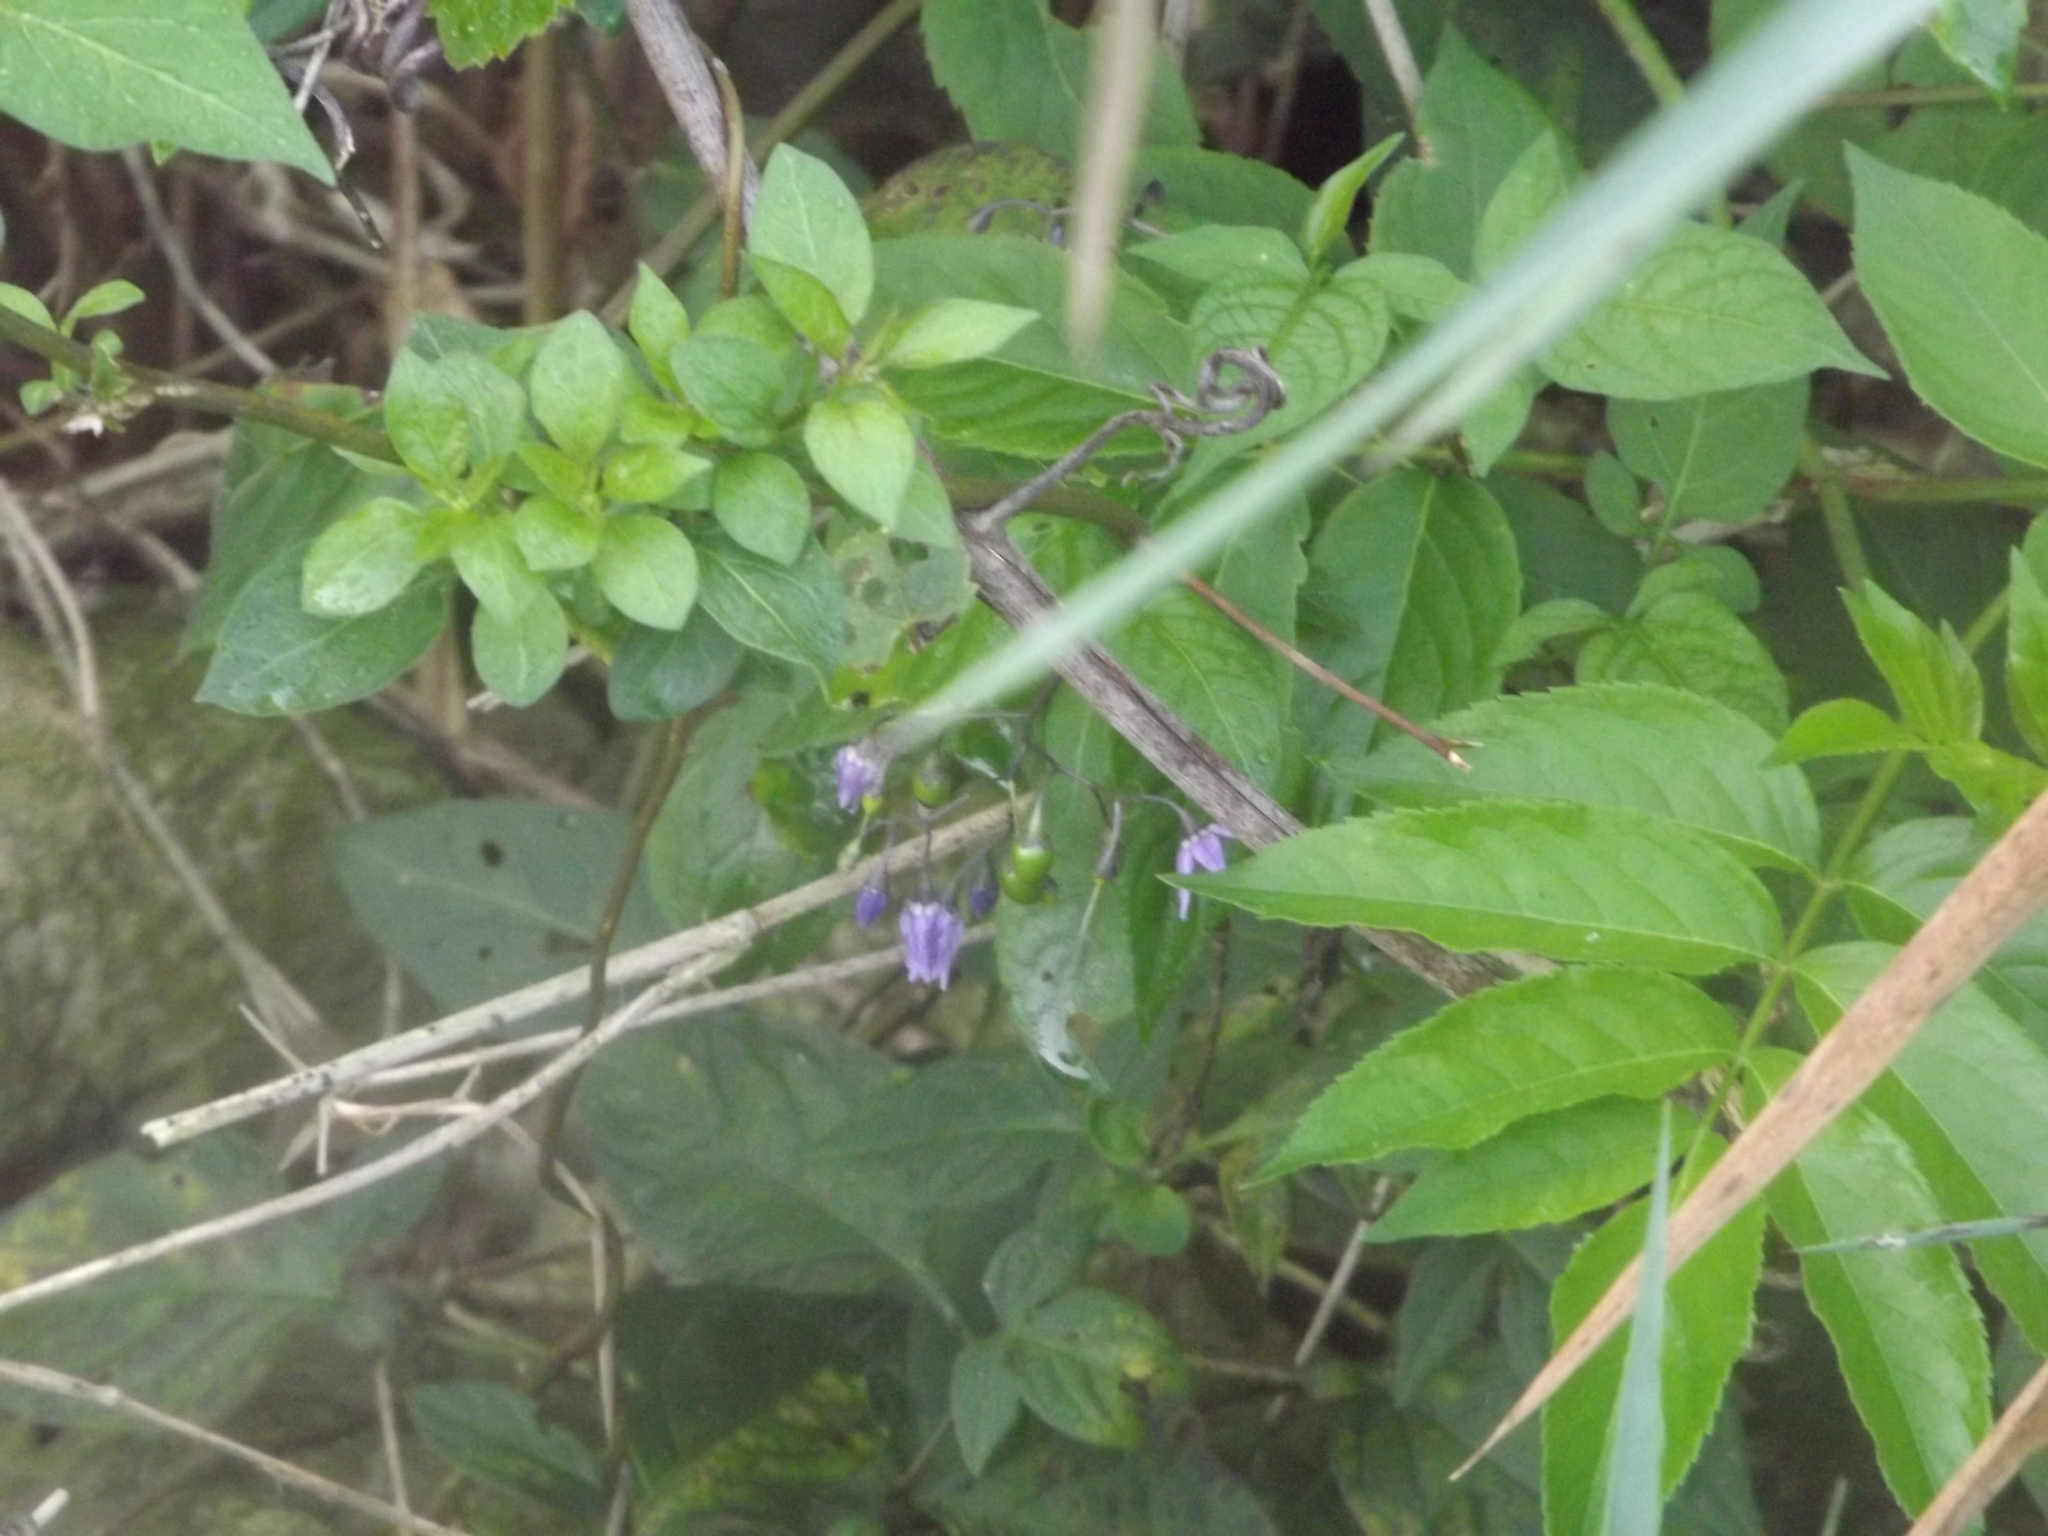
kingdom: Plantae
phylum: Tracheophyta
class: Magnoliopsida
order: Solanales
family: Solanaceae
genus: Solanum
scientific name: Solanum dulcamara
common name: Climbing nightshade
